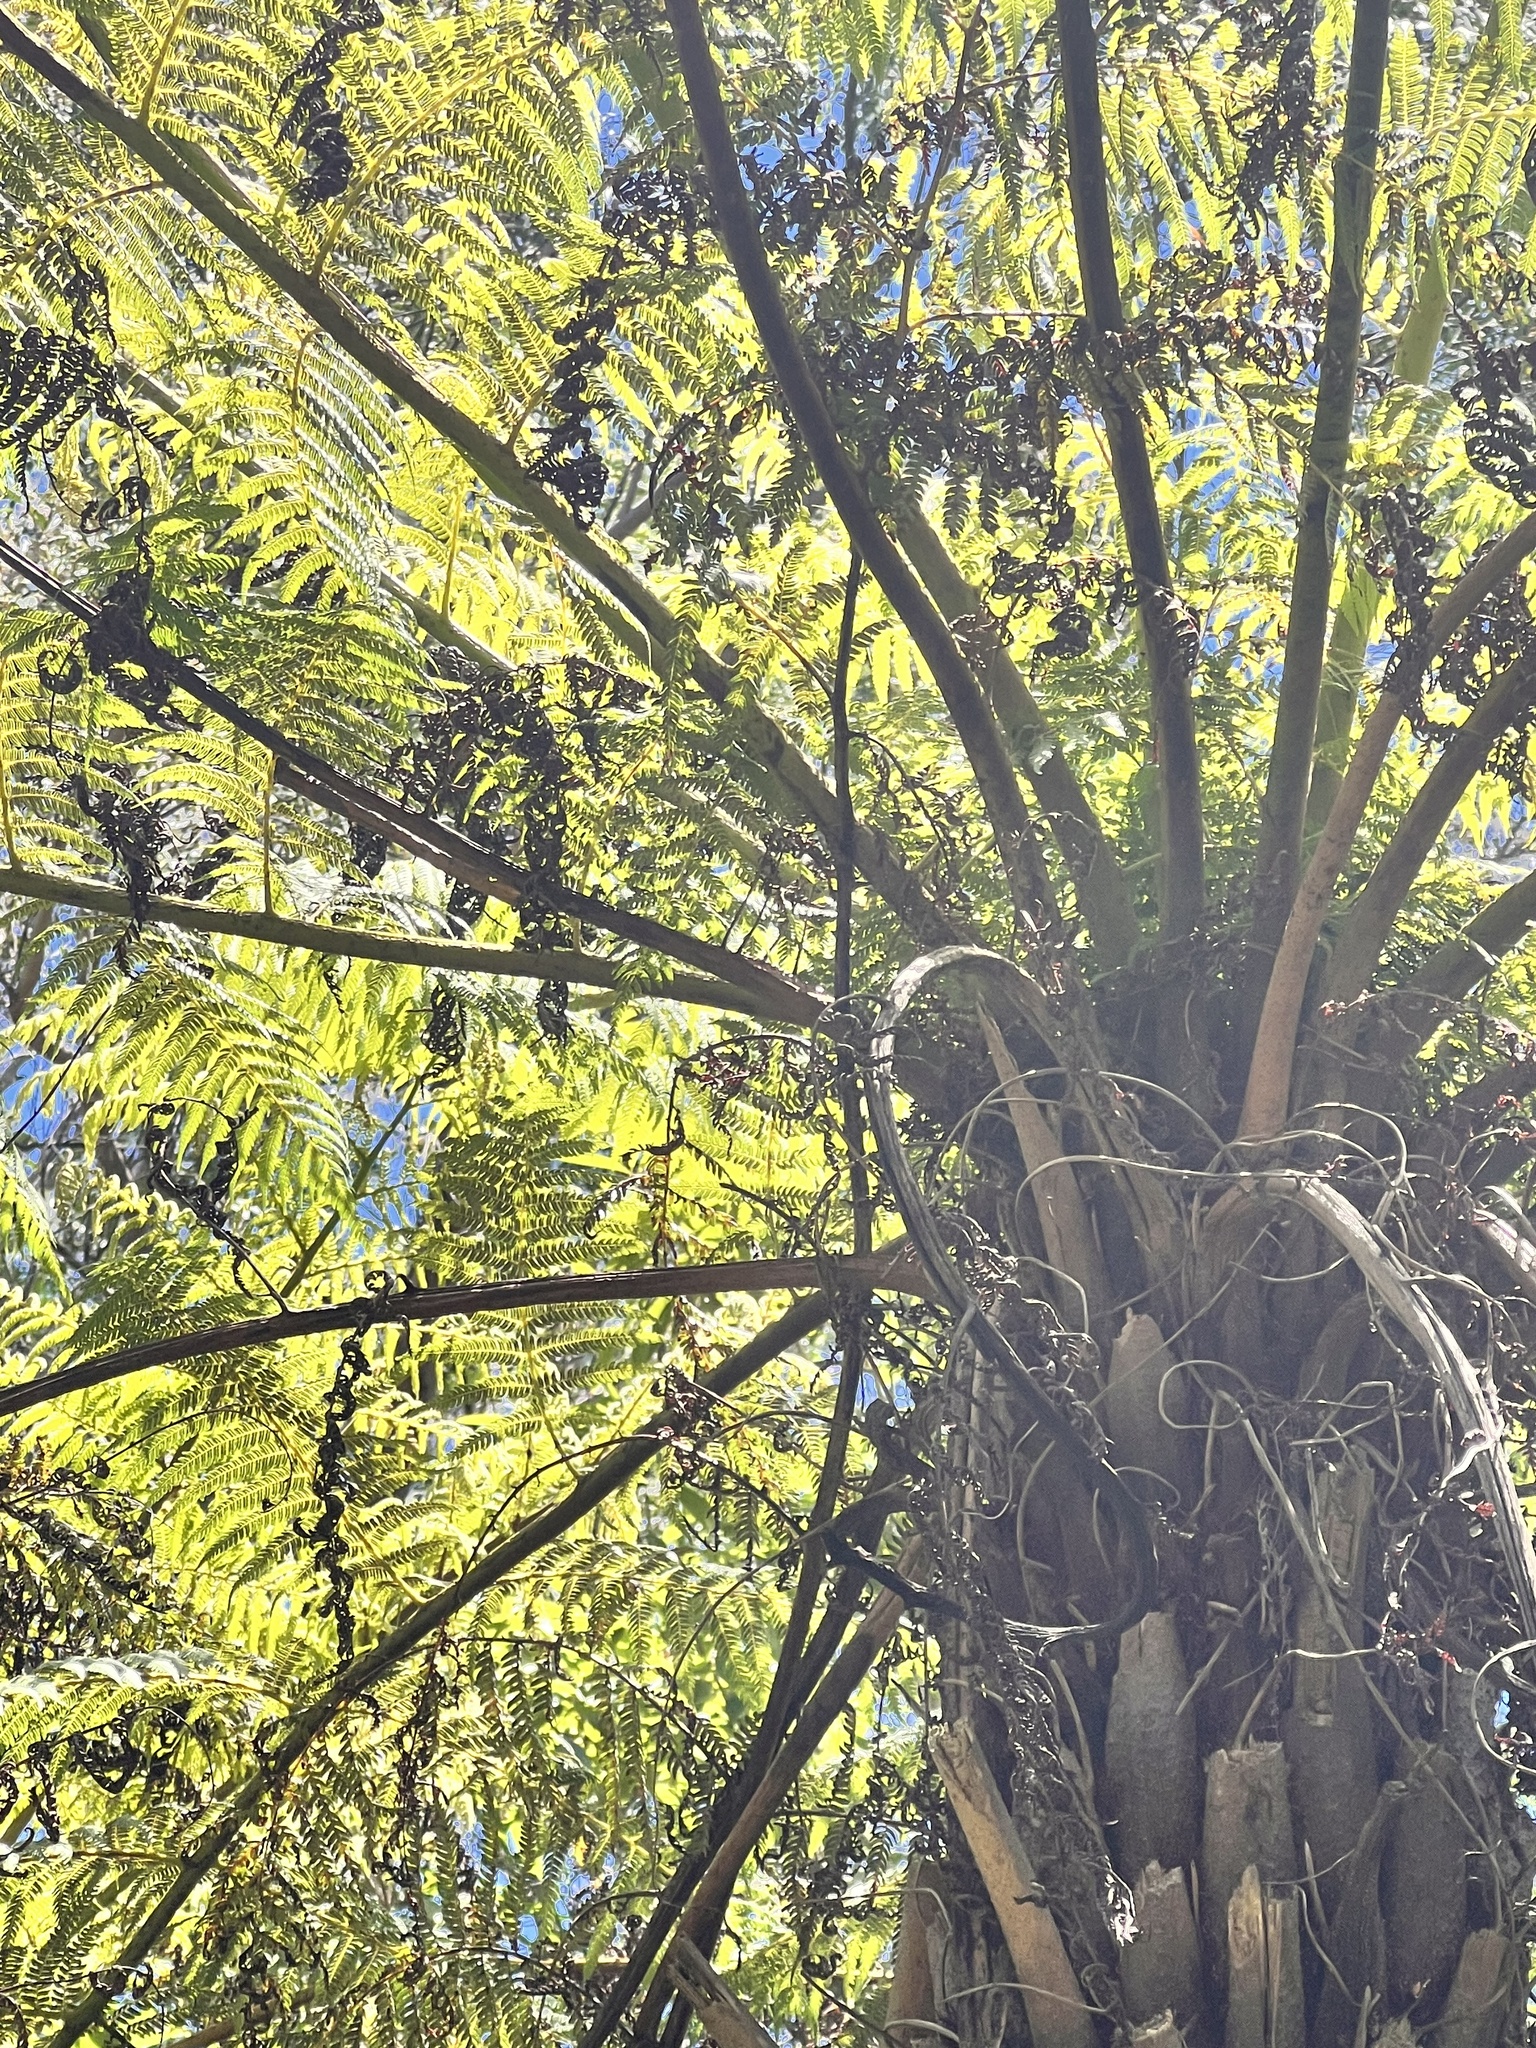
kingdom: Plantae
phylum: Tracheophyta
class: Polypodiopsida
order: Cyatheales
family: Cyatheaceae
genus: Alsophila
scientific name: Alsophila australis
